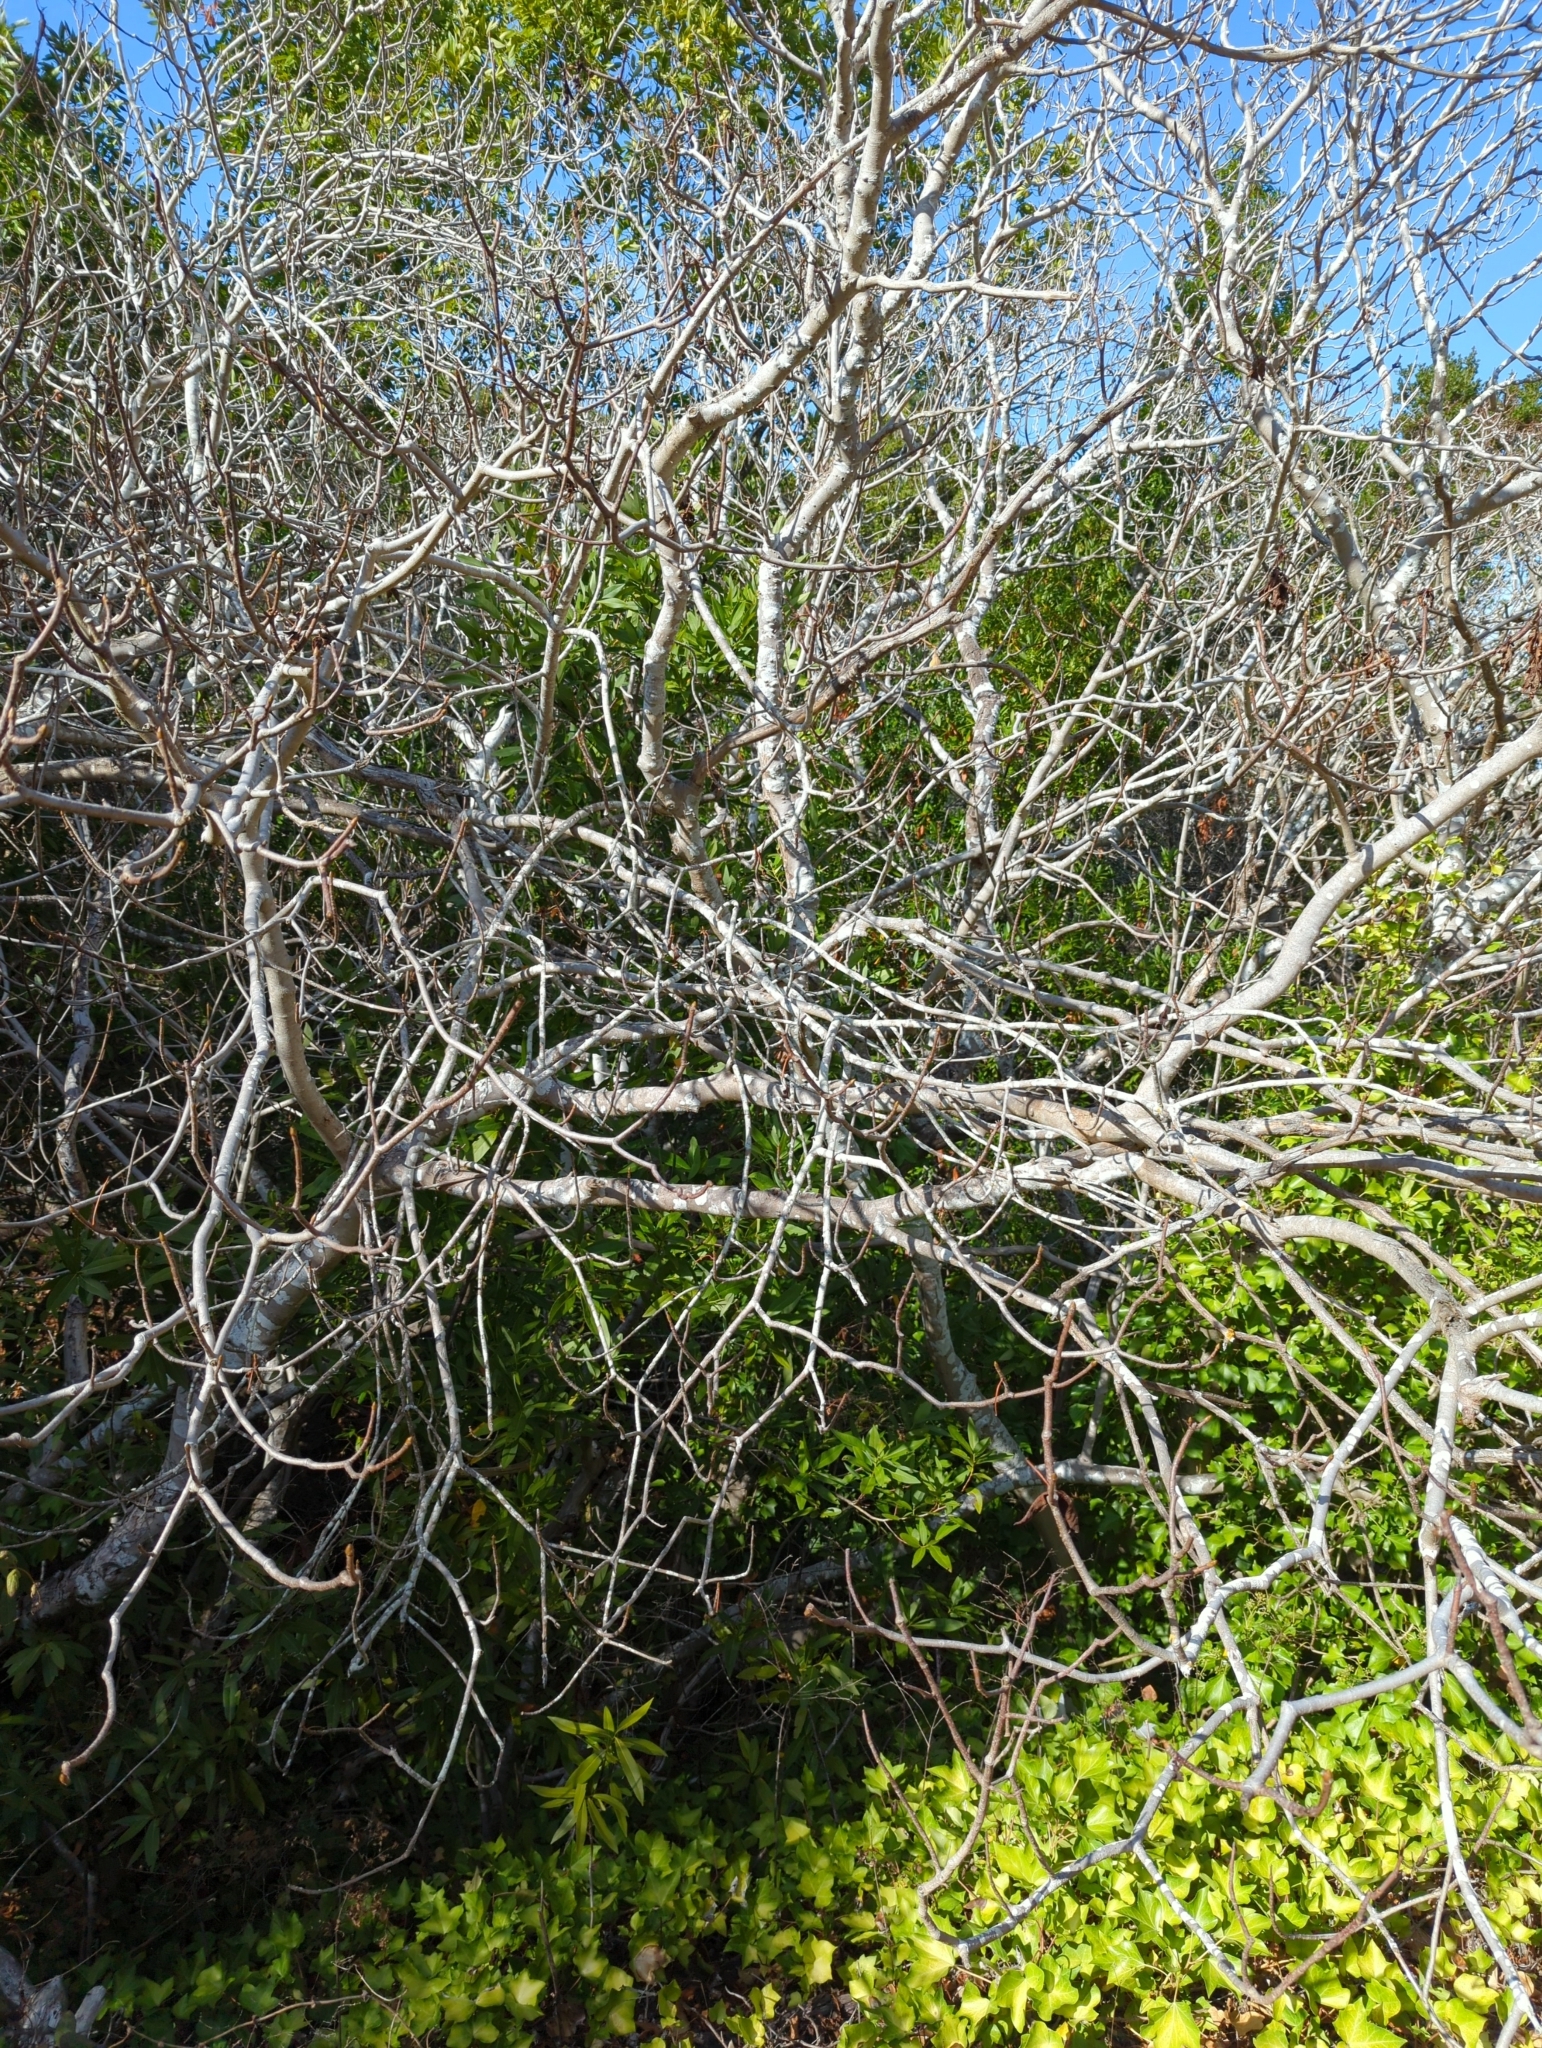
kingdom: Plantae
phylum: Tracheophyta
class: Magnoliopsida
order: Sapindales
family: Sapindaceae
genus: Aesculus
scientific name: Aesculus californica
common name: California buckeye
